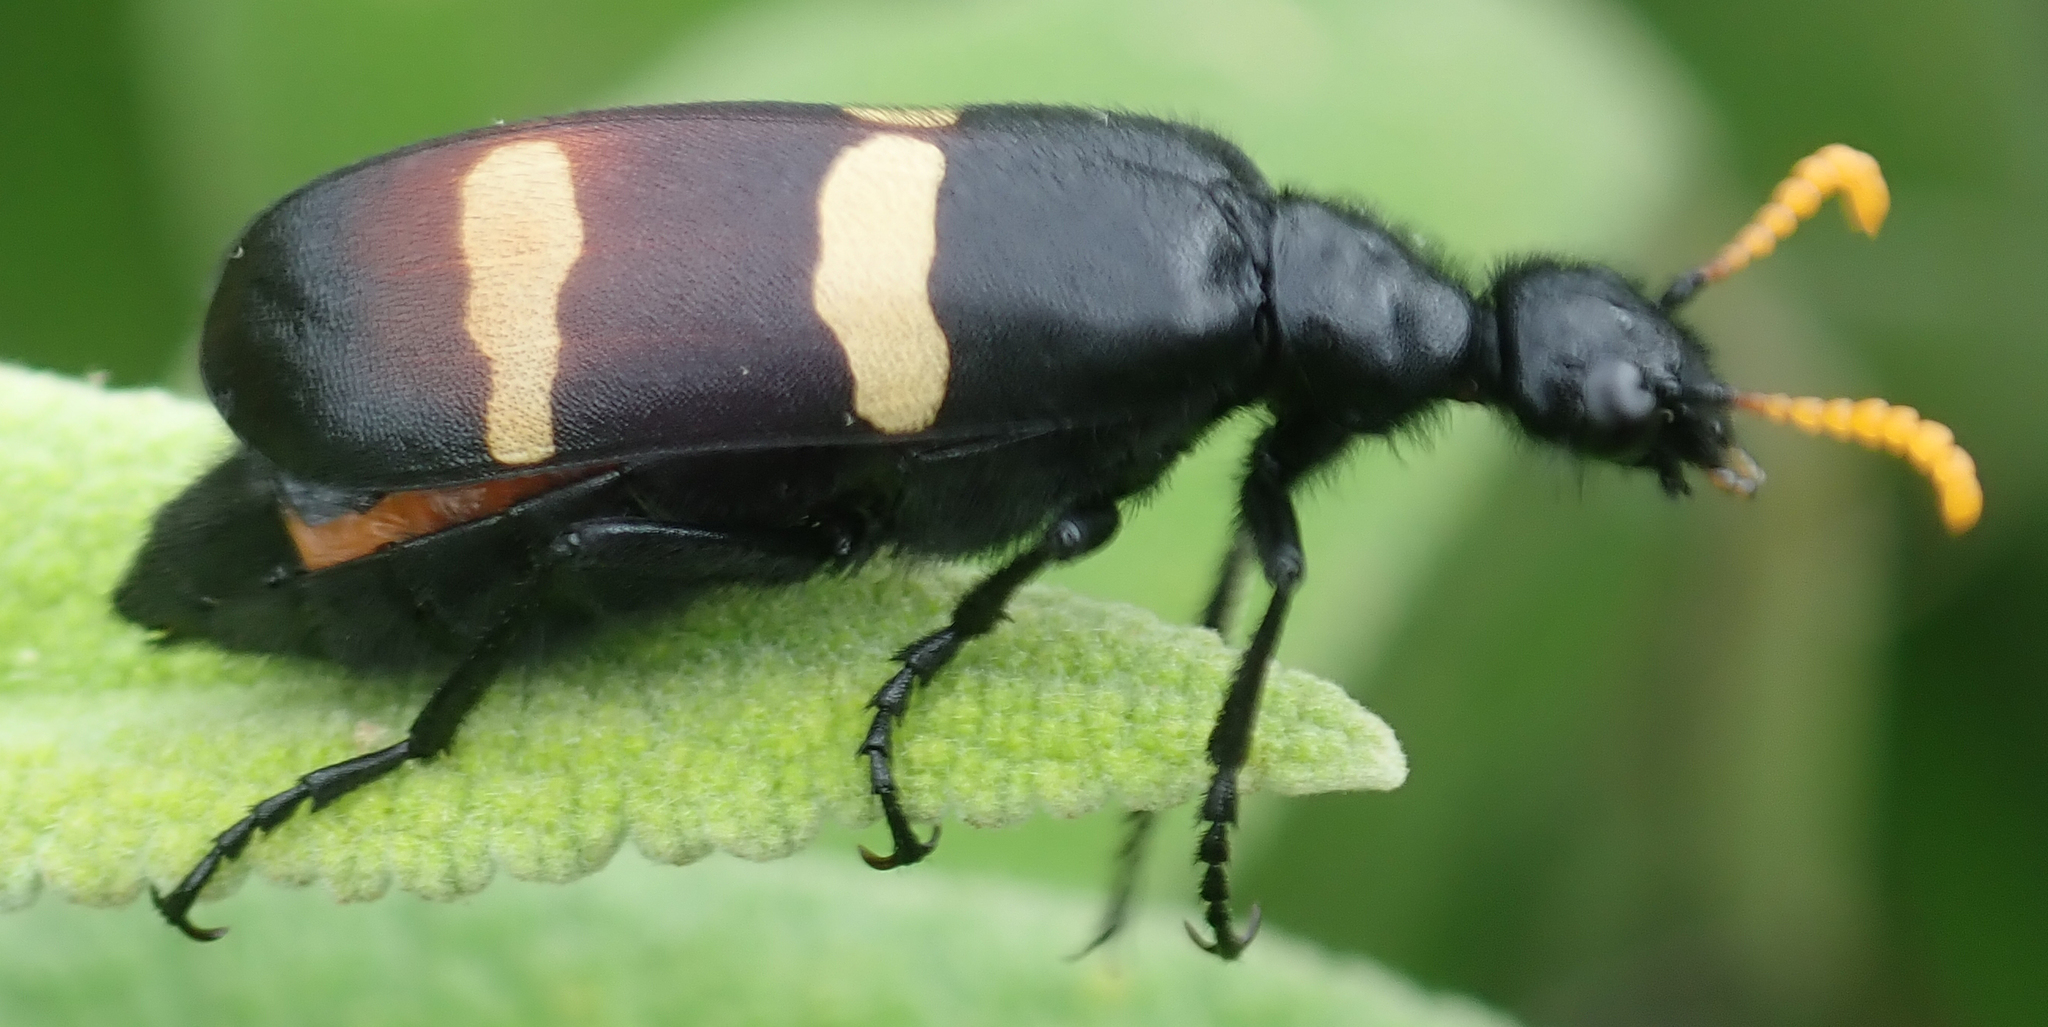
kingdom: Animalia
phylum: Arthropoda
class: Insecta
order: Coleoptera
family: Meloidae
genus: Hycleus
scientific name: Hycleus
